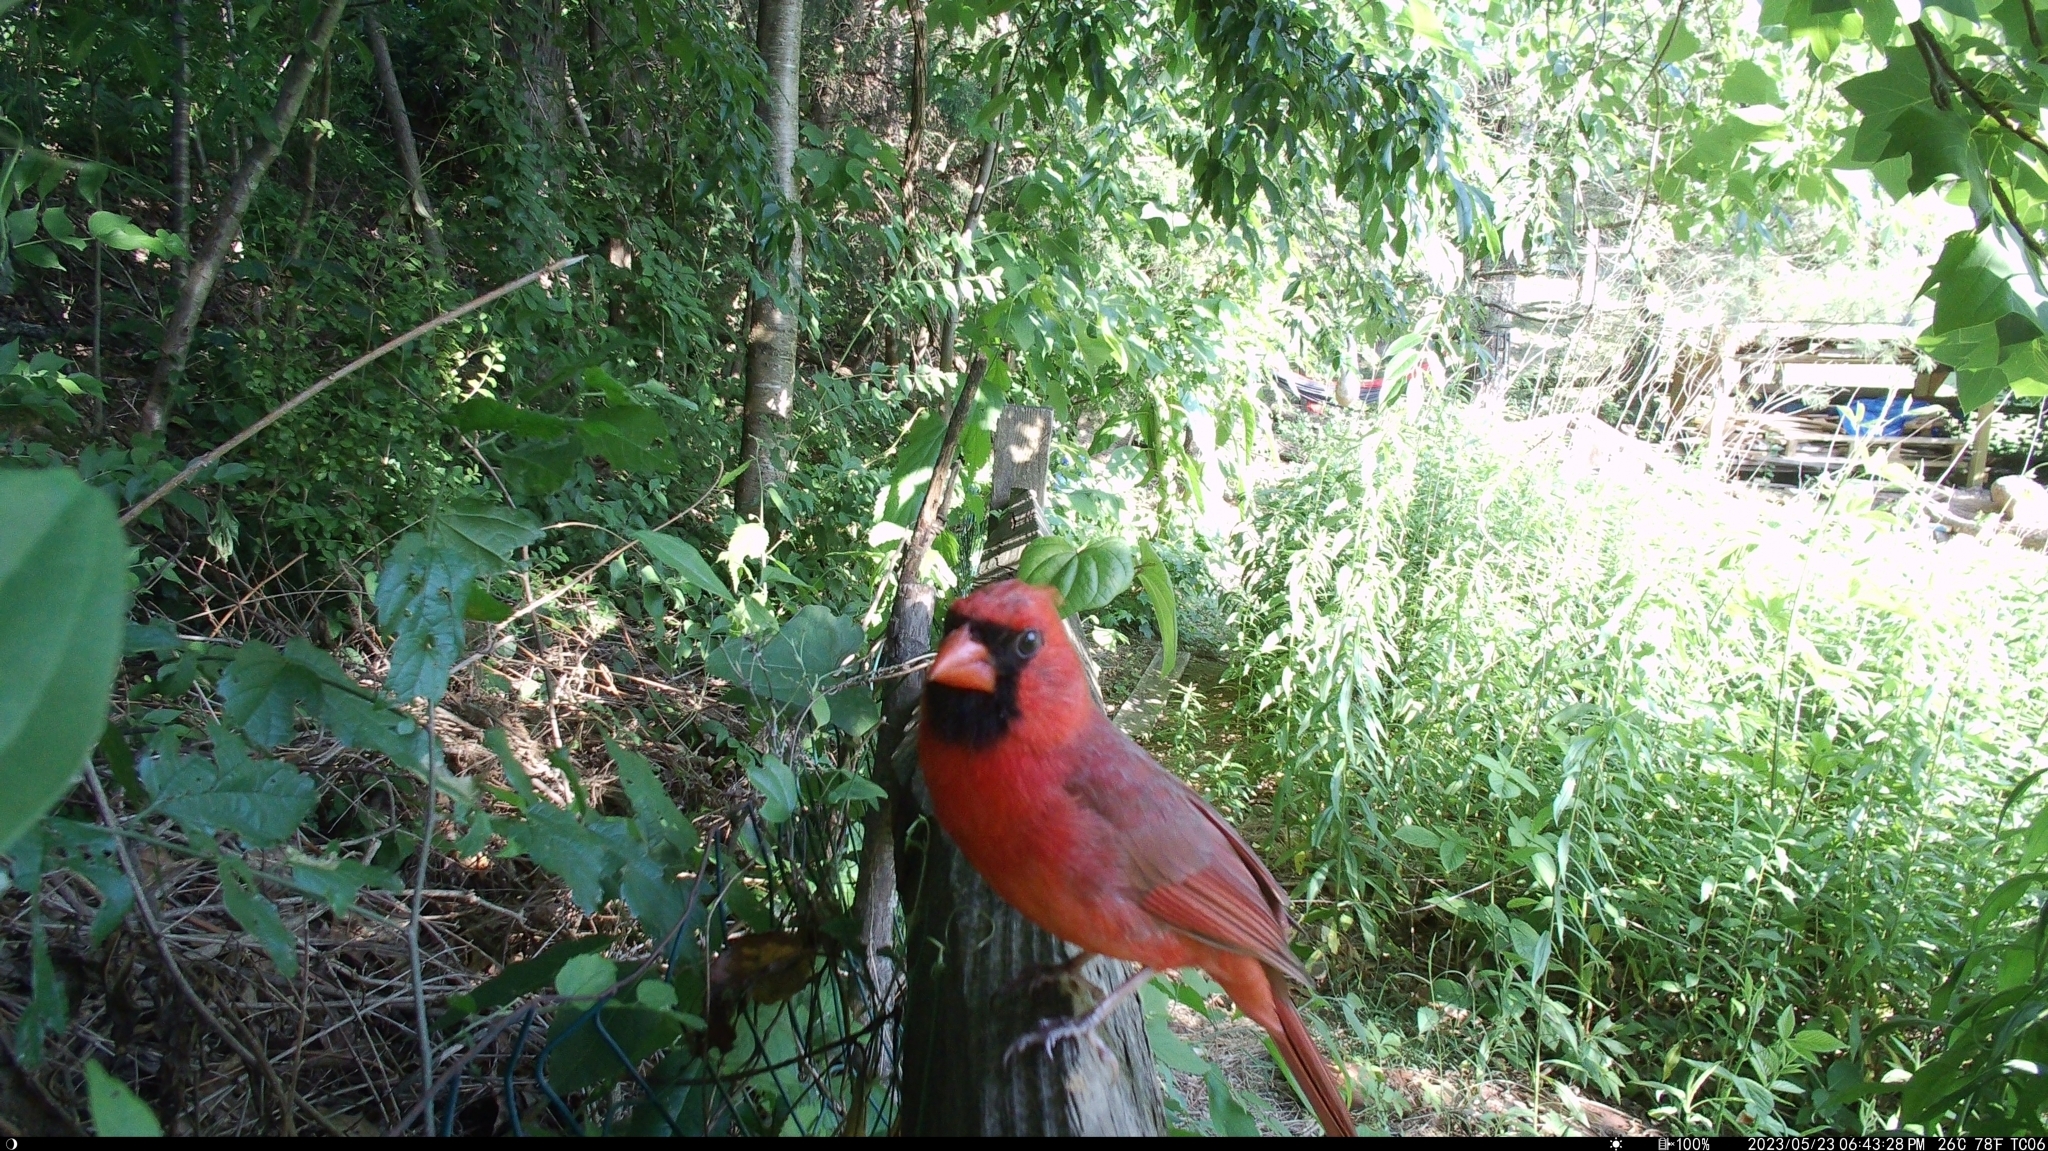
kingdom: Animalia
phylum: Chordata
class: Aves
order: Passeriformes
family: Cardinalidae
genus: Cardinalis
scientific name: Cardinalis cardinalis
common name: Northern cardinal
